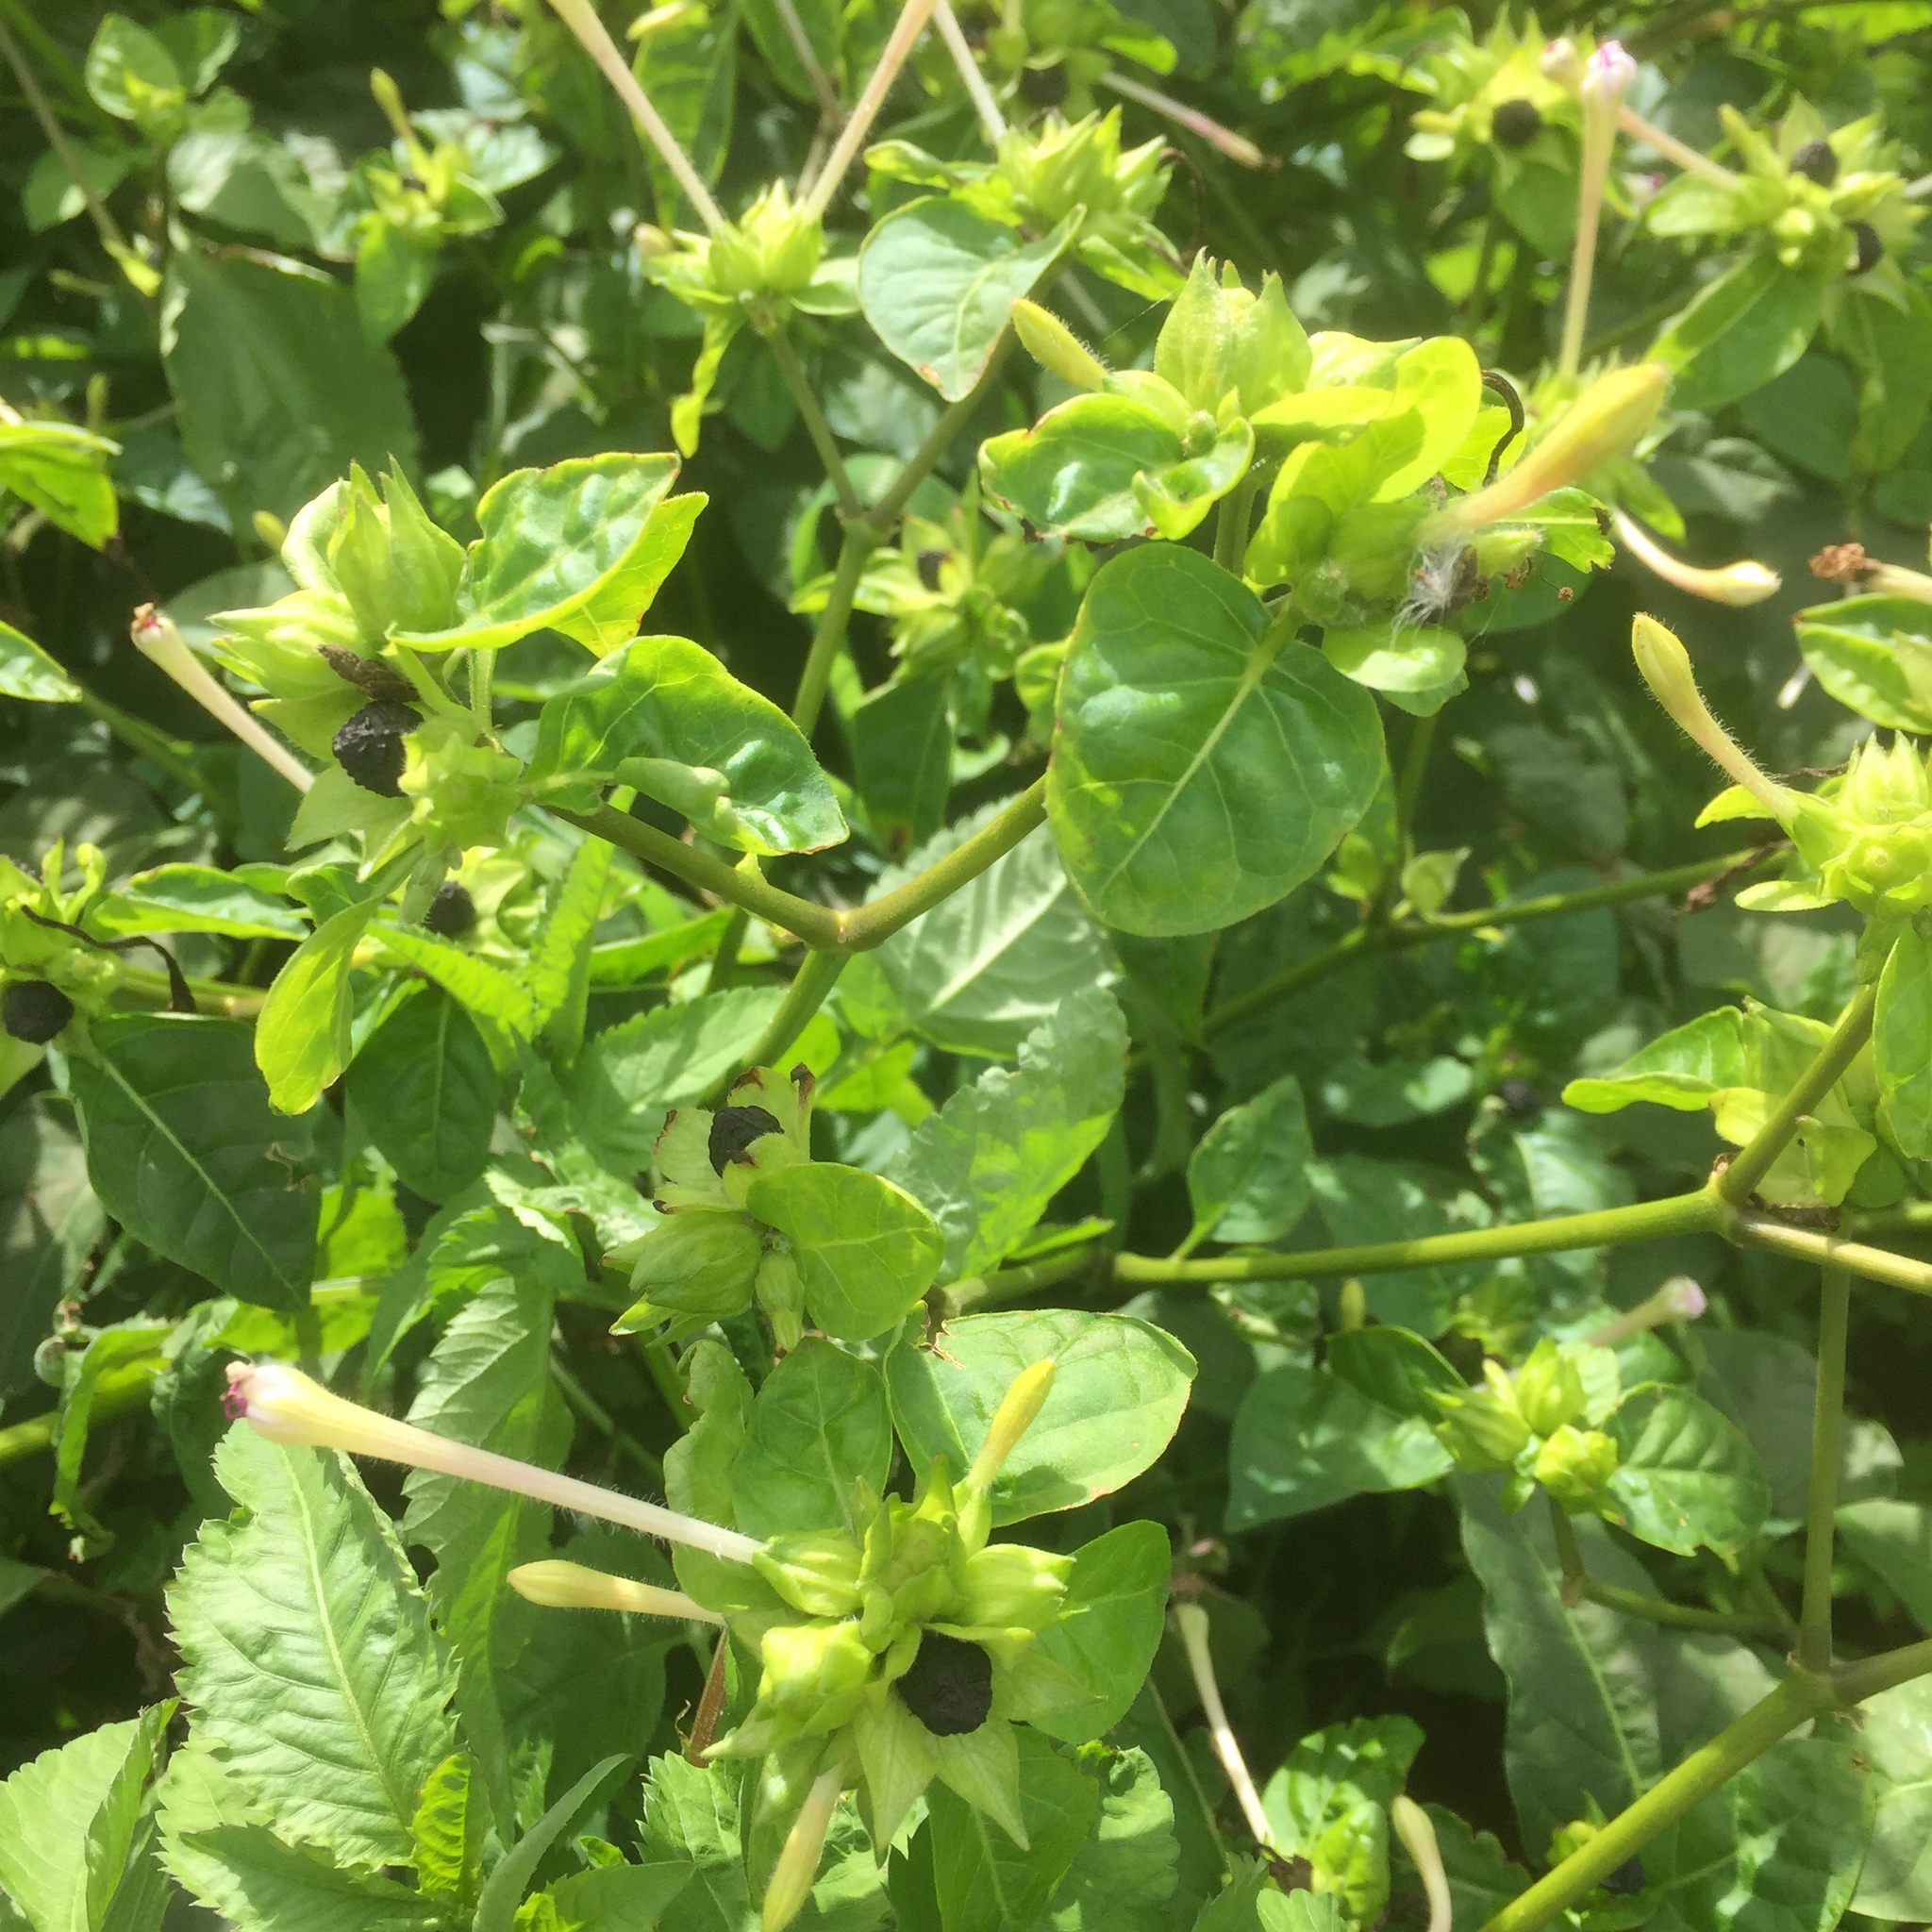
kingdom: Plantae
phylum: Tracheophyta
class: Magnoliopsida
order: Caryophyllales
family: Nyctaginaceae
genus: Mirabilis
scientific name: Mirabilis jalapa
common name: Marvel-of-peru
